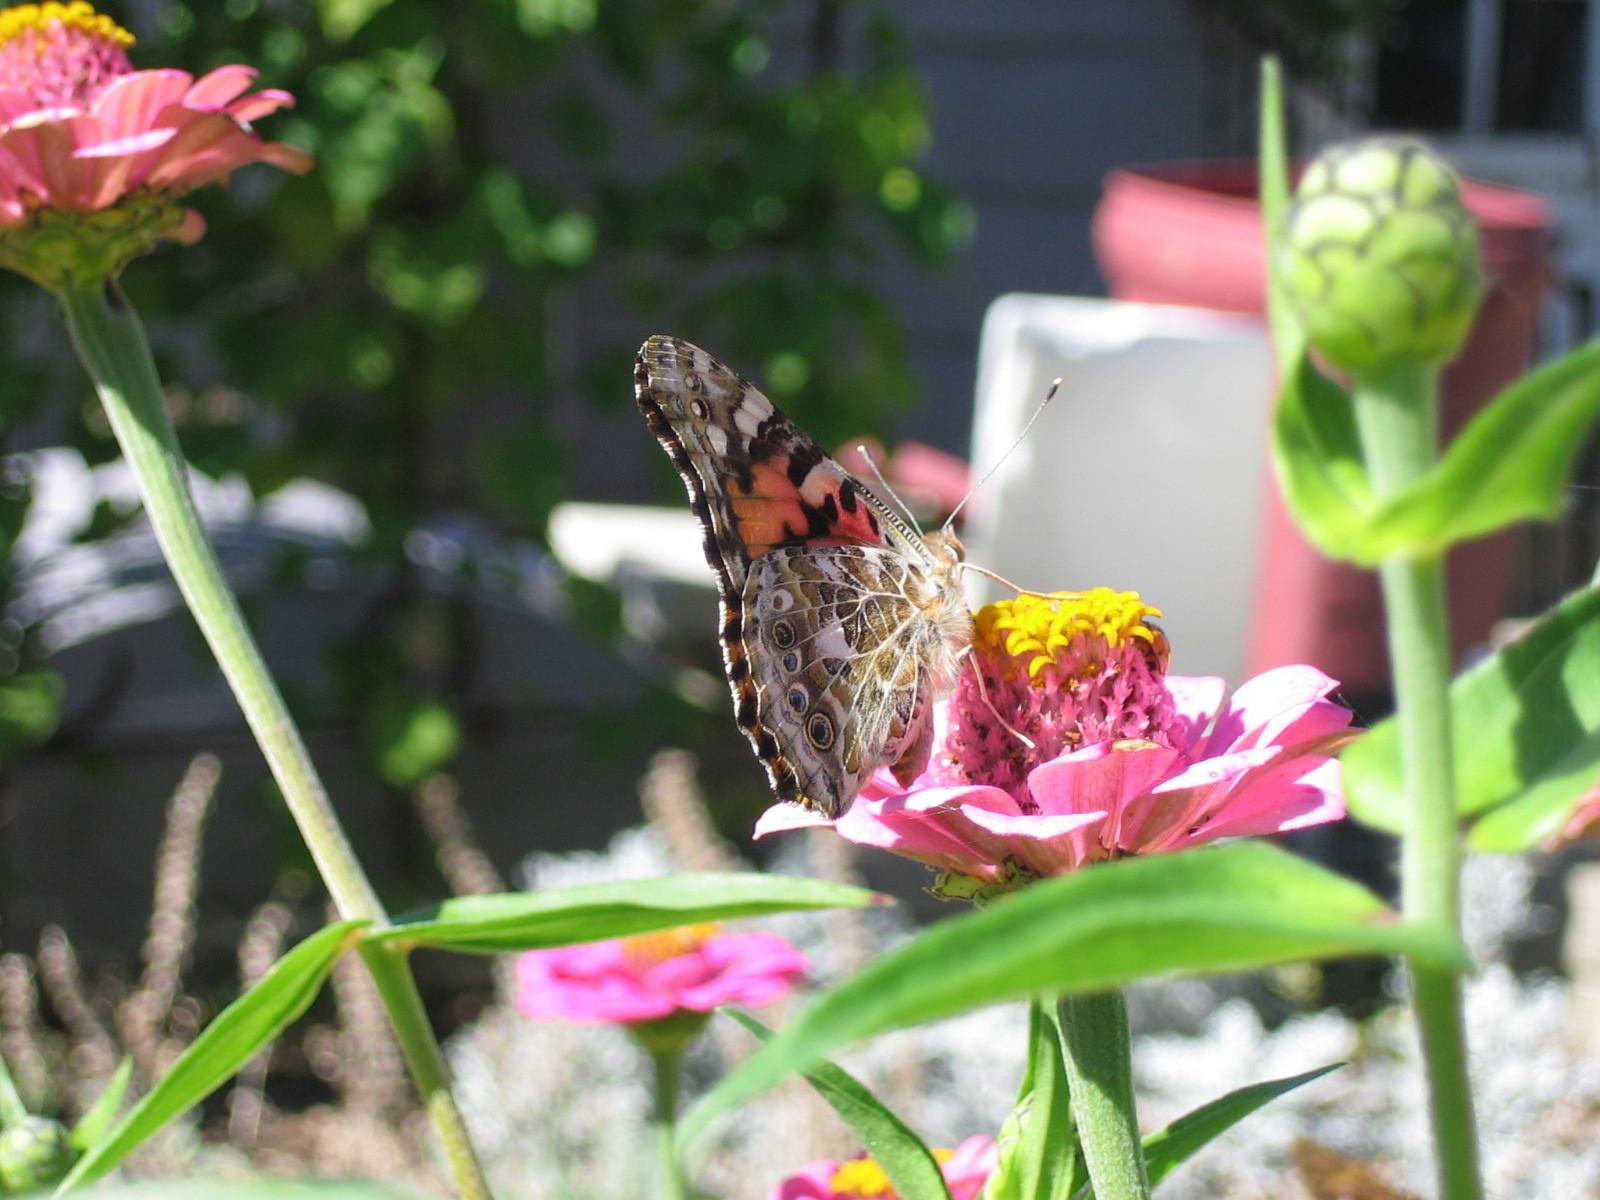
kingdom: Animalia
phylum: Arthropoda
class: Insecta
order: Lepidoptera
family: Nymphalidae
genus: Vanessa
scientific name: Vanessa cardui
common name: Painted lady
